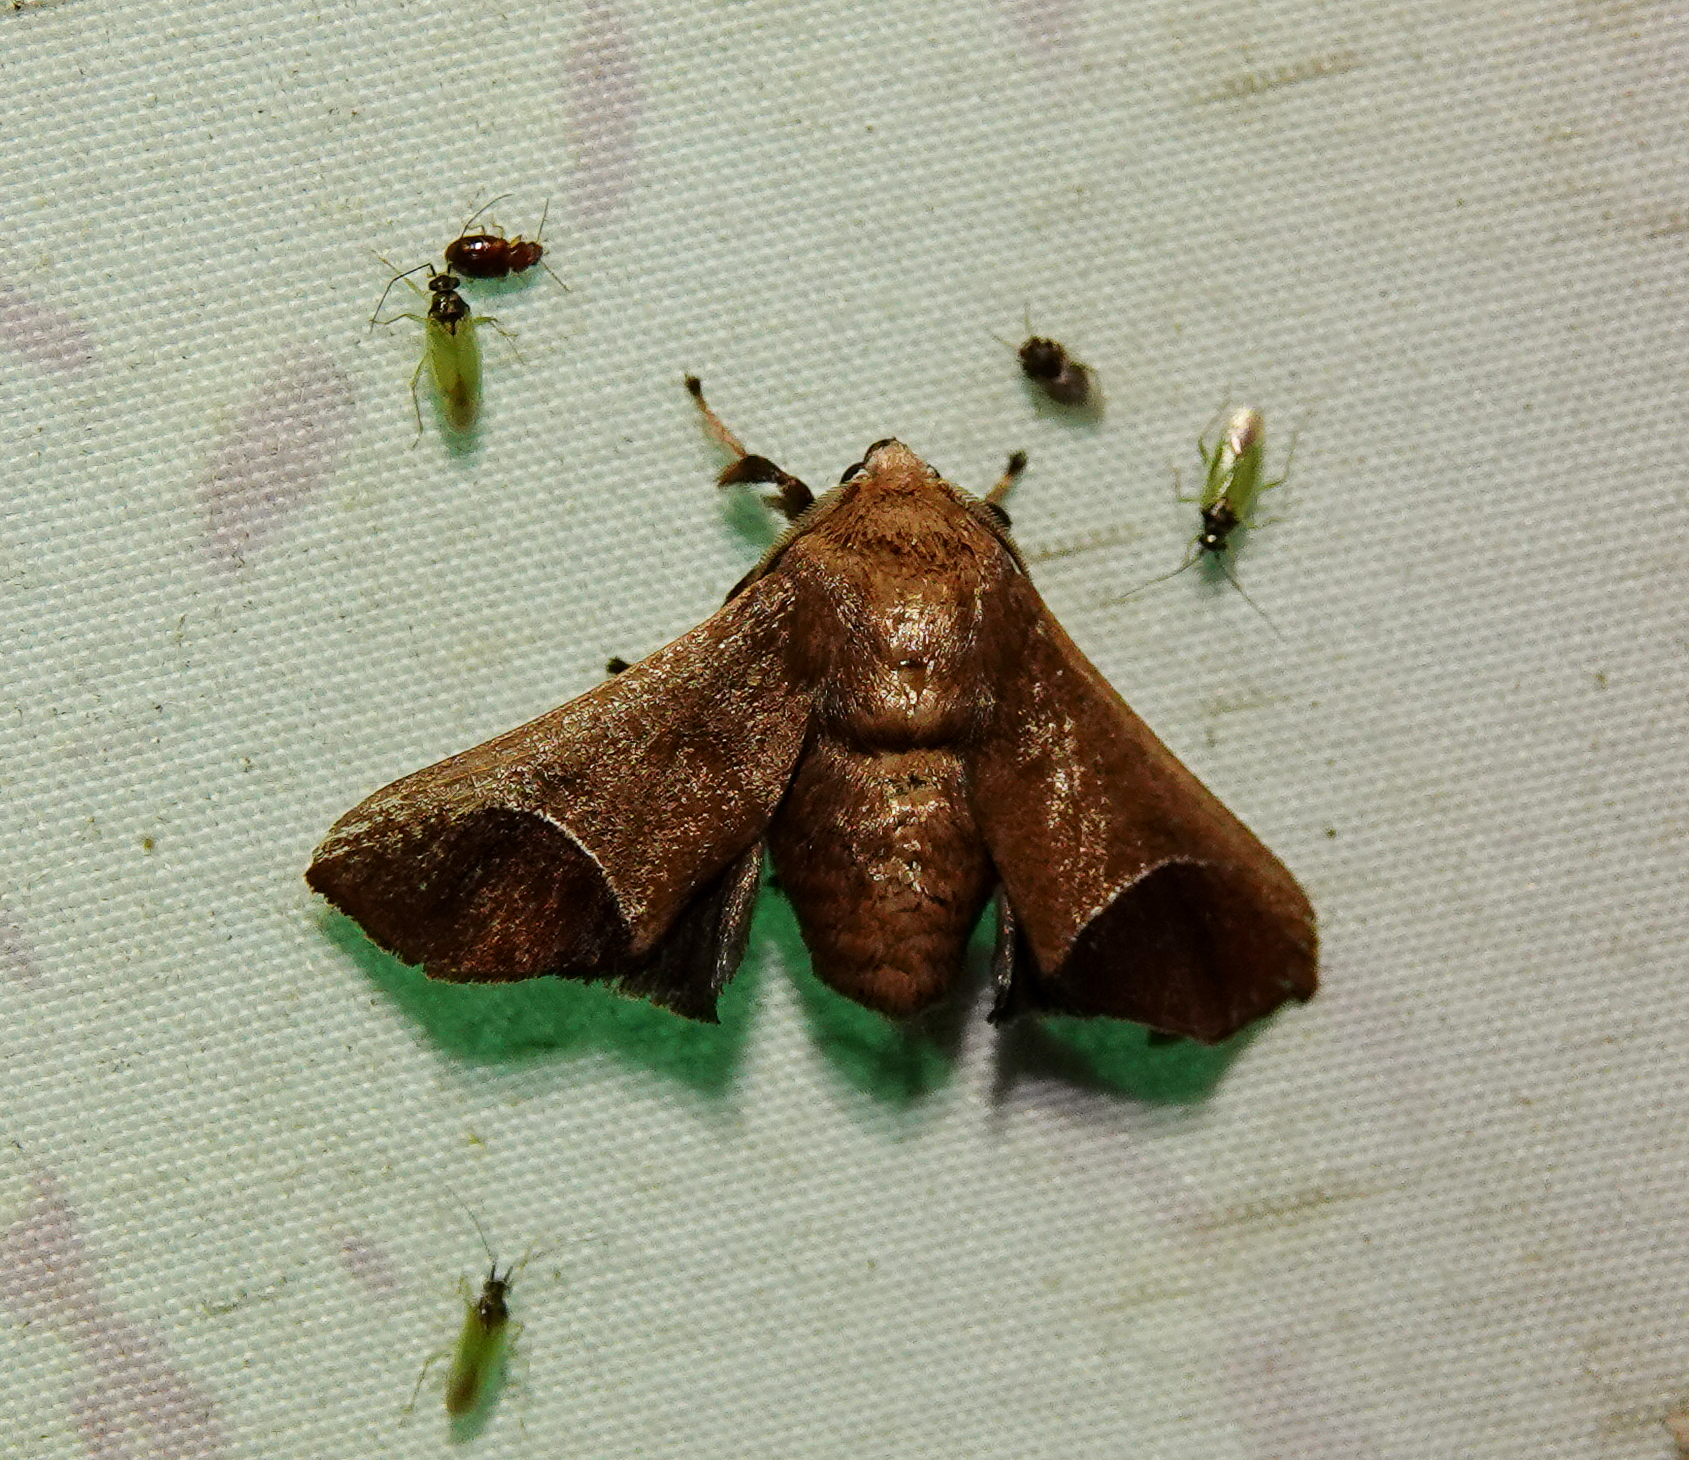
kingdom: Animalia
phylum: Arthropoda
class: Insecta
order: Lepidoptera
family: Limacodidae
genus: Idonauton
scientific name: Idonauton apicalis
